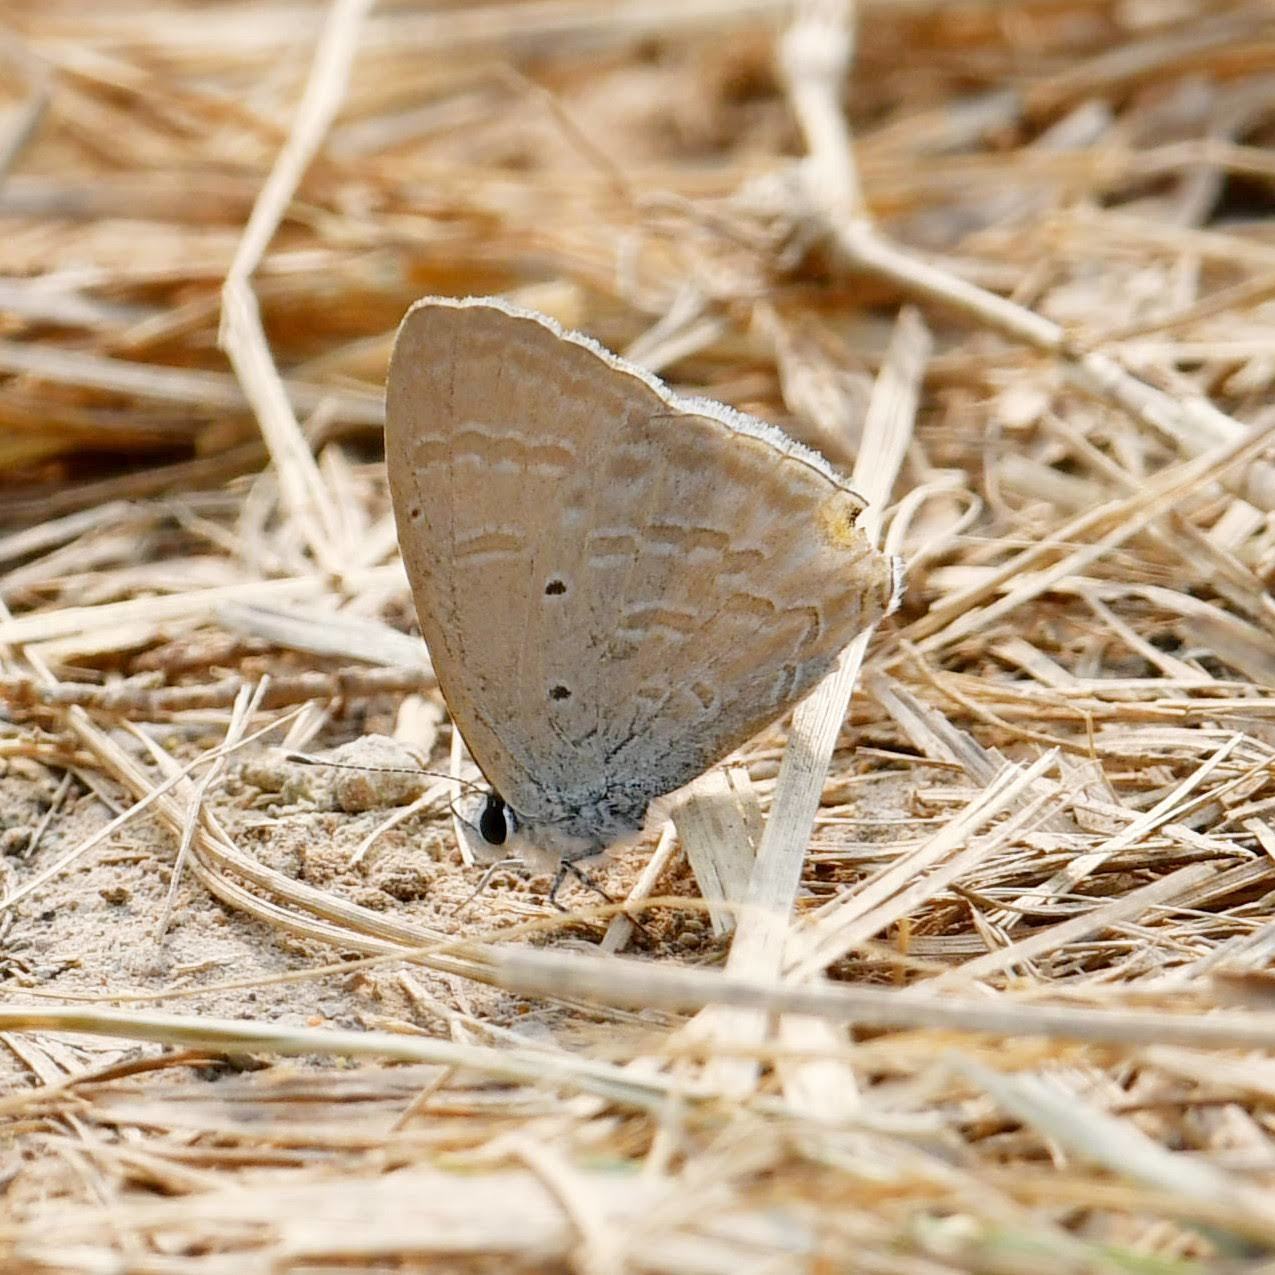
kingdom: Animalia
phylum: Arthropoda
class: Insecta
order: Lepidoptera
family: Lycaenidae
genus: Catochrysops
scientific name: Catochrysops strabo
